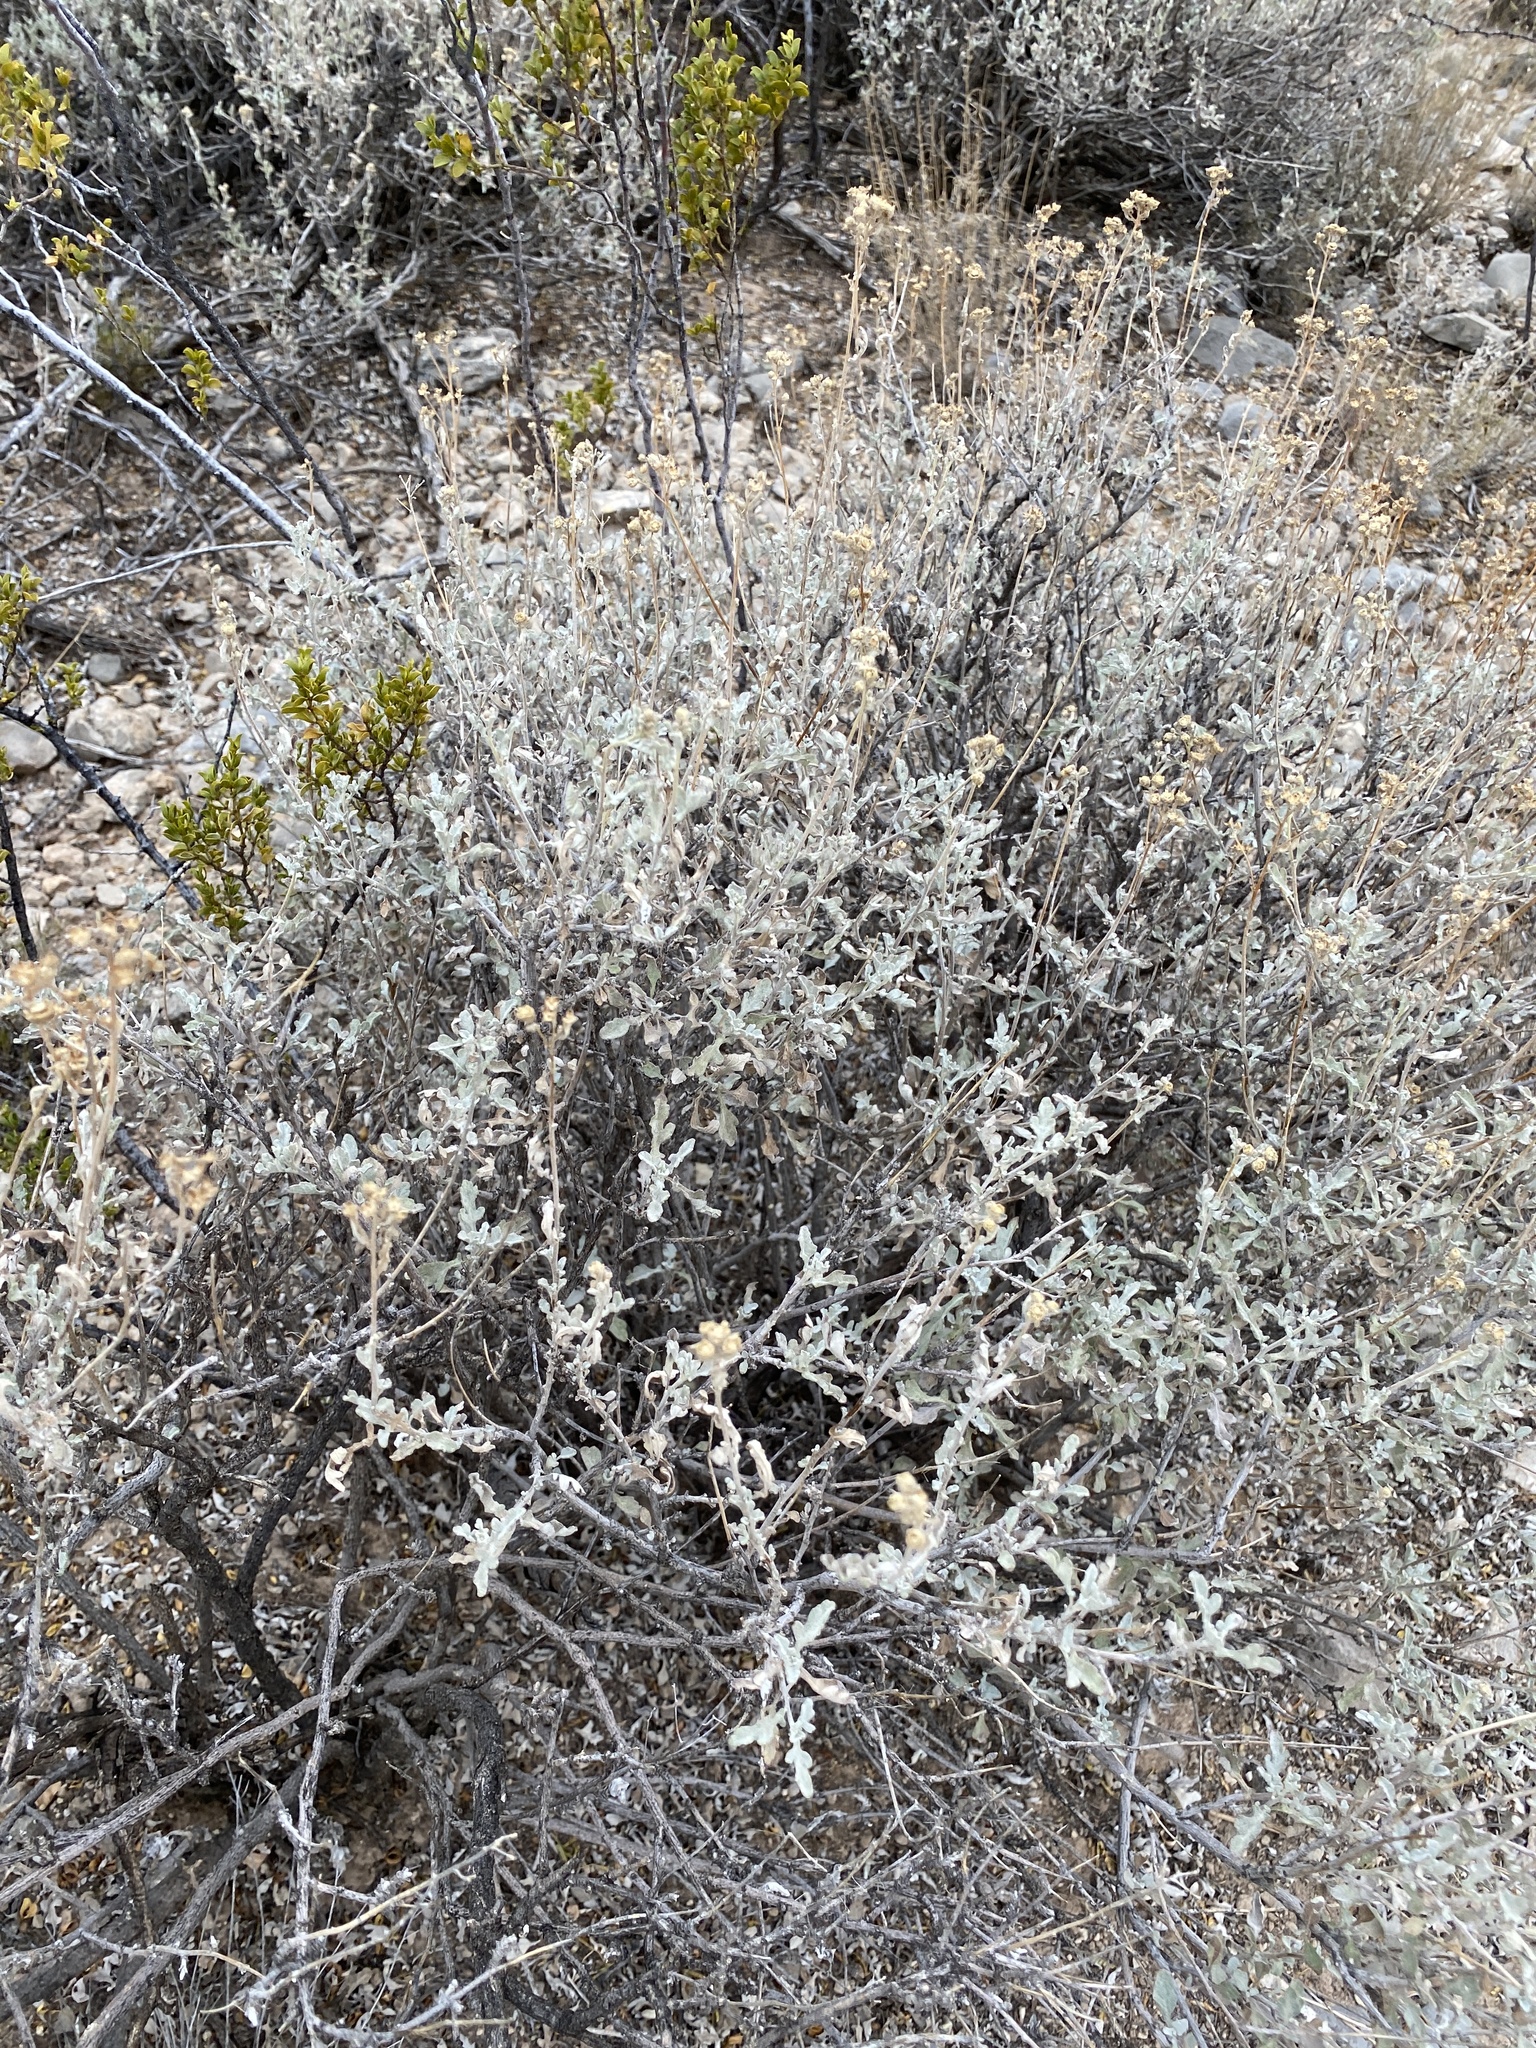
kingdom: Plantae
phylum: Tracheophyta
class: Magnoliopsida
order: Asterales
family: Asteraceae
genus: Parthenium
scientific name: Parthenium incanum
